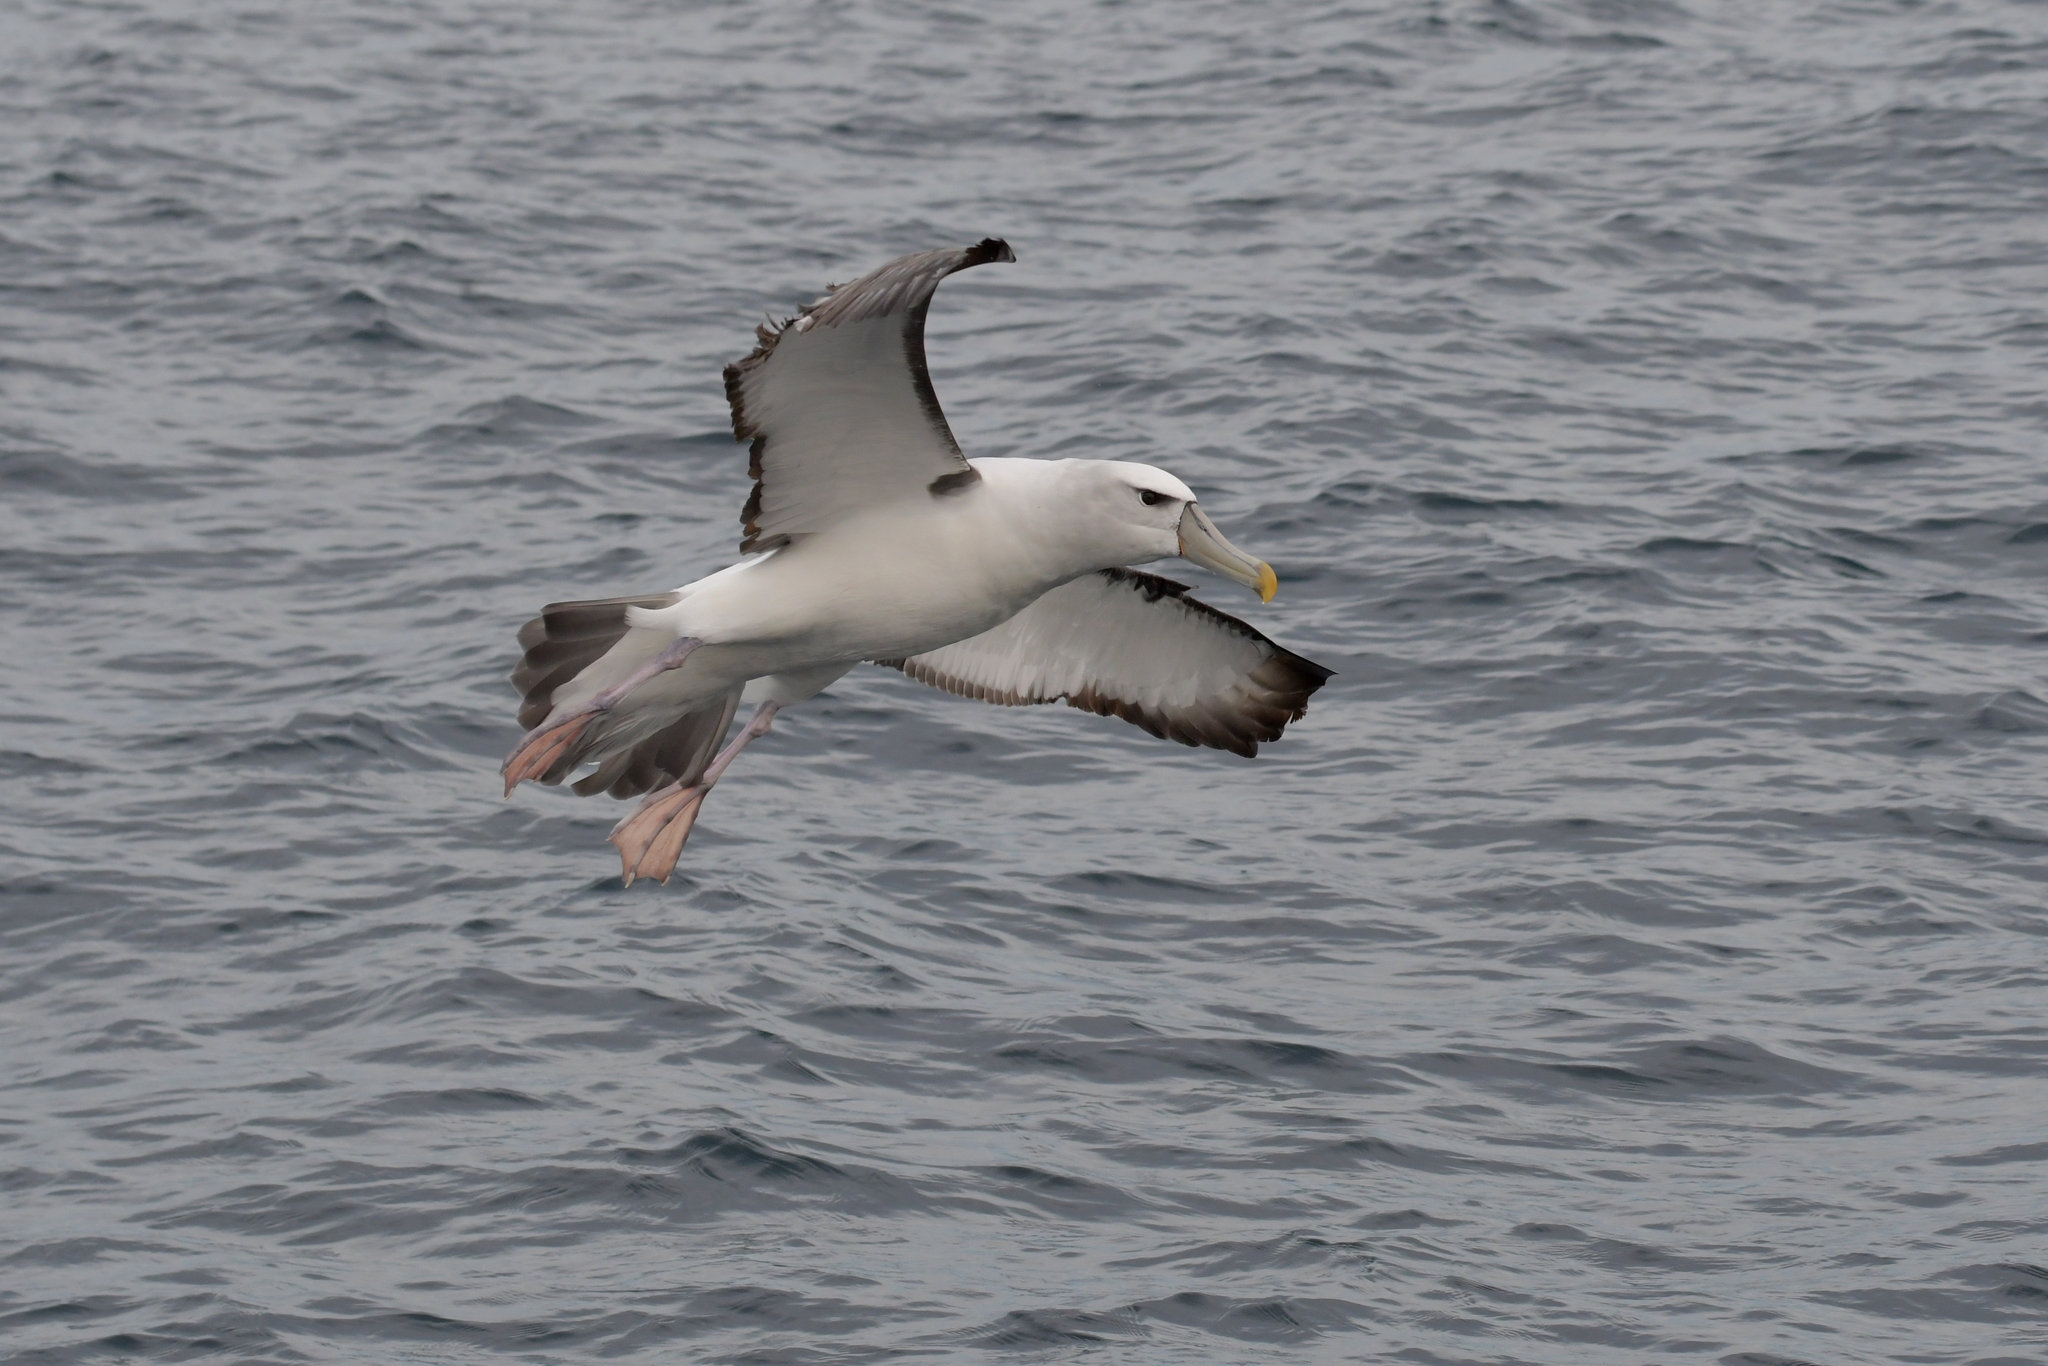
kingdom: Animalia
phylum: Chordata
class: Aves
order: Procellariiformes
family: Diomedeidae
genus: Thalassarche
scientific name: Thalassarche cauta
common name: Shy albatross
